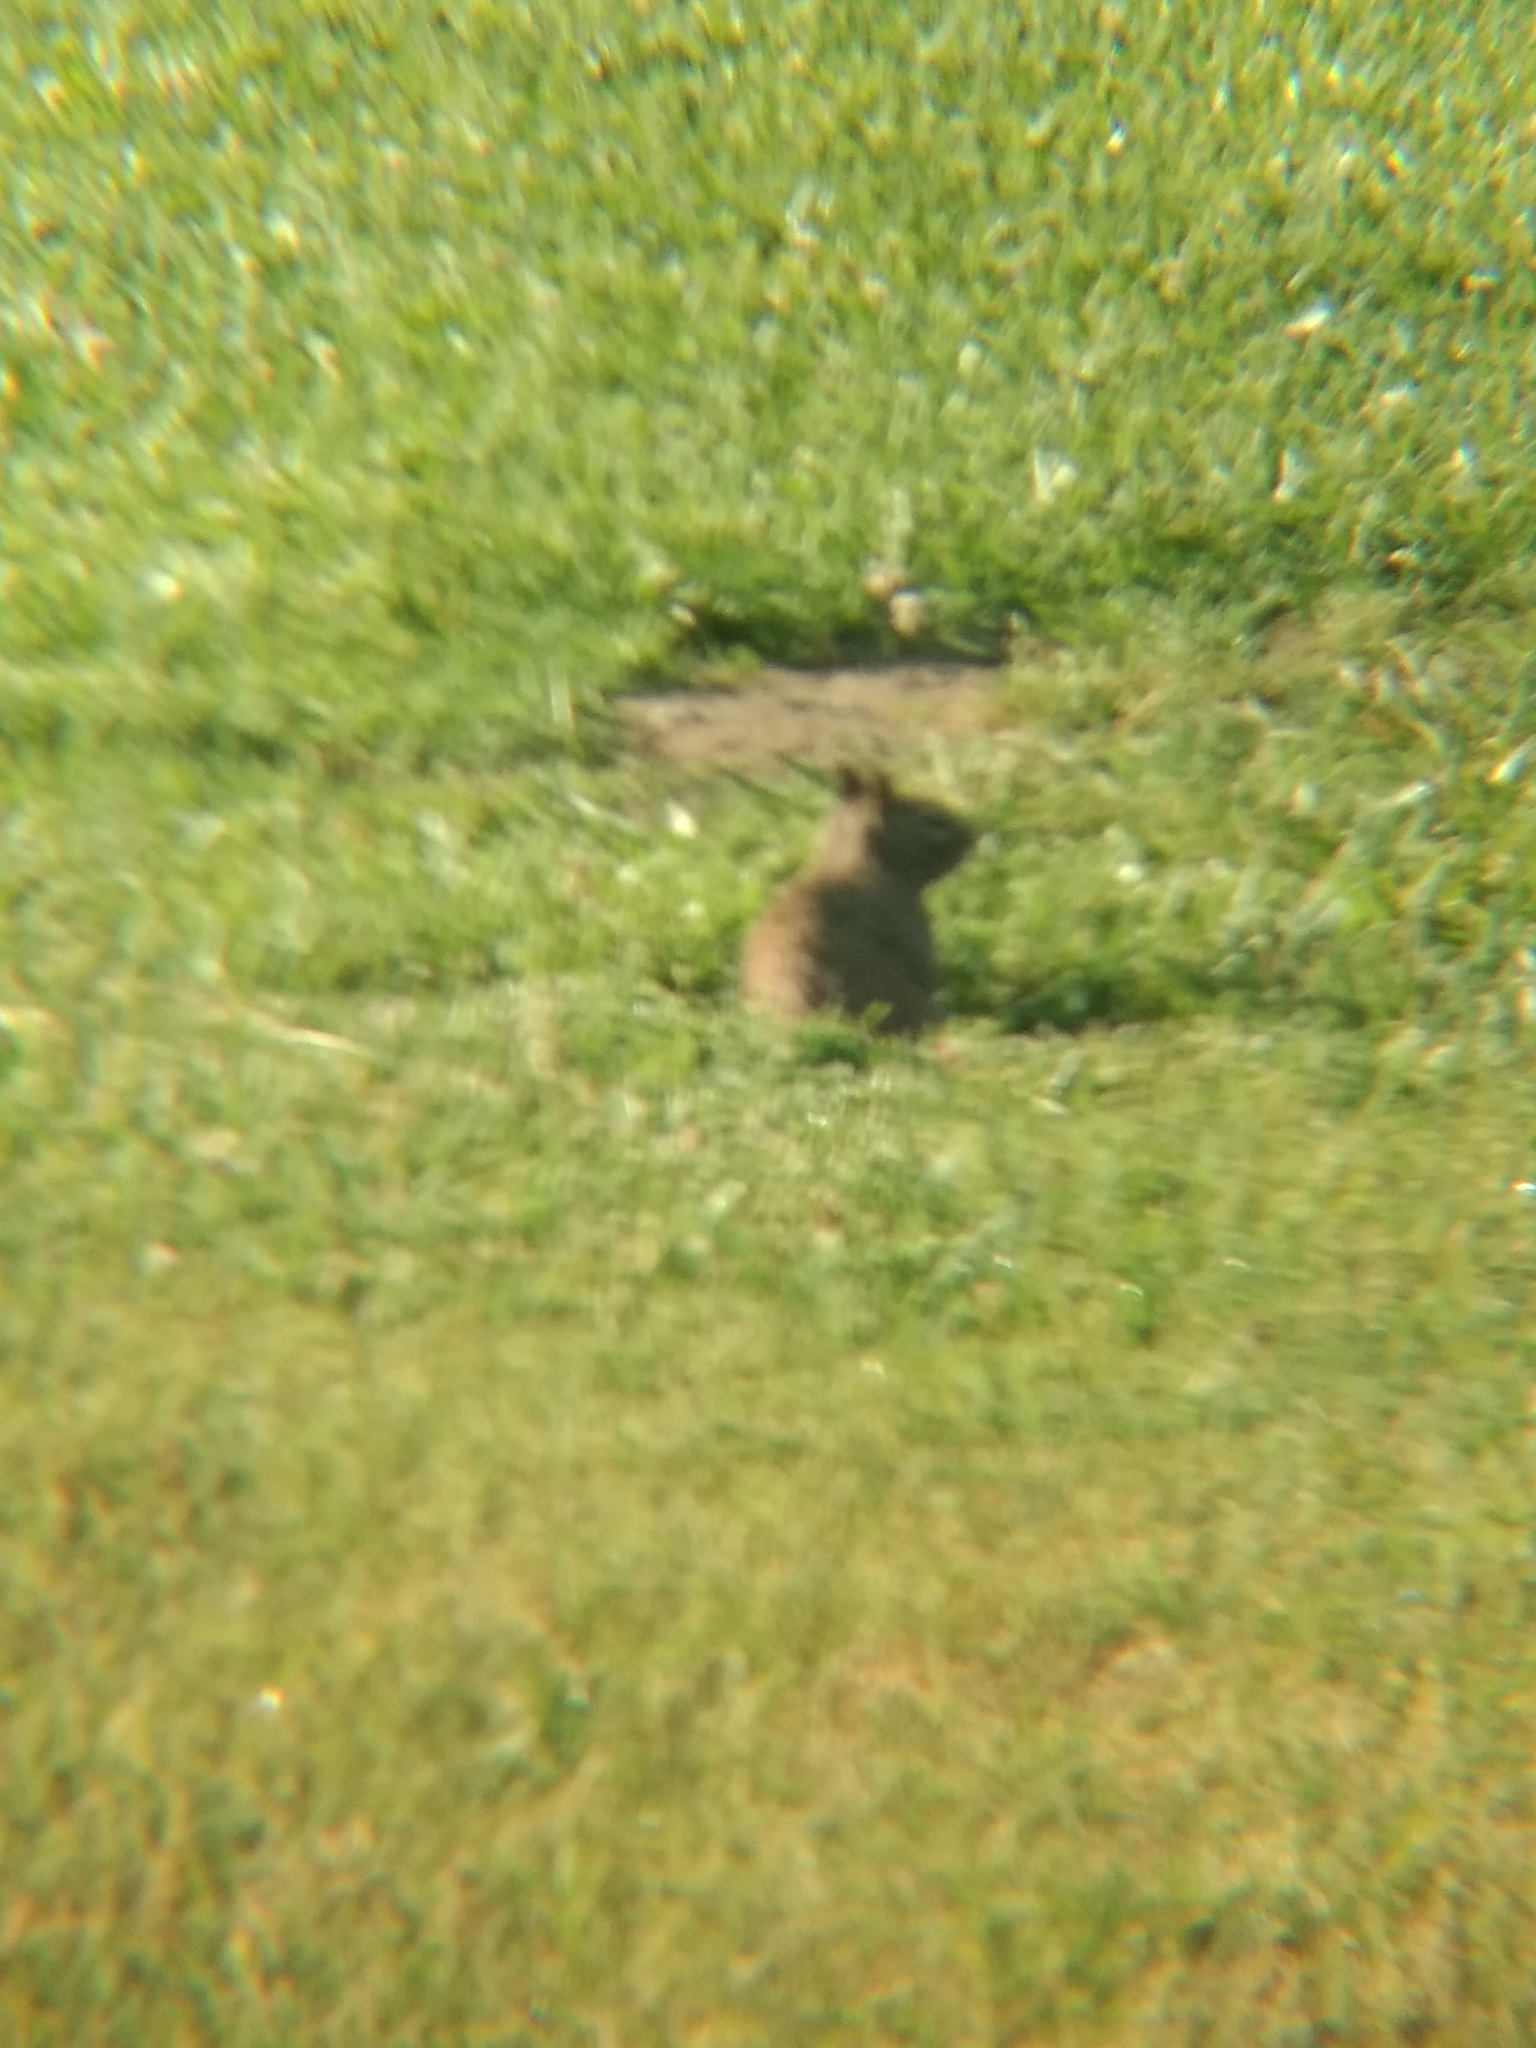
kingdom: Animalia
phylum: Chordata
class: Mammalia
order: Rodentia
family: Sciuridae
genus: Otospermophilus
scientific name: Otospermophilus beecheyi
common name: California ground squirrel
